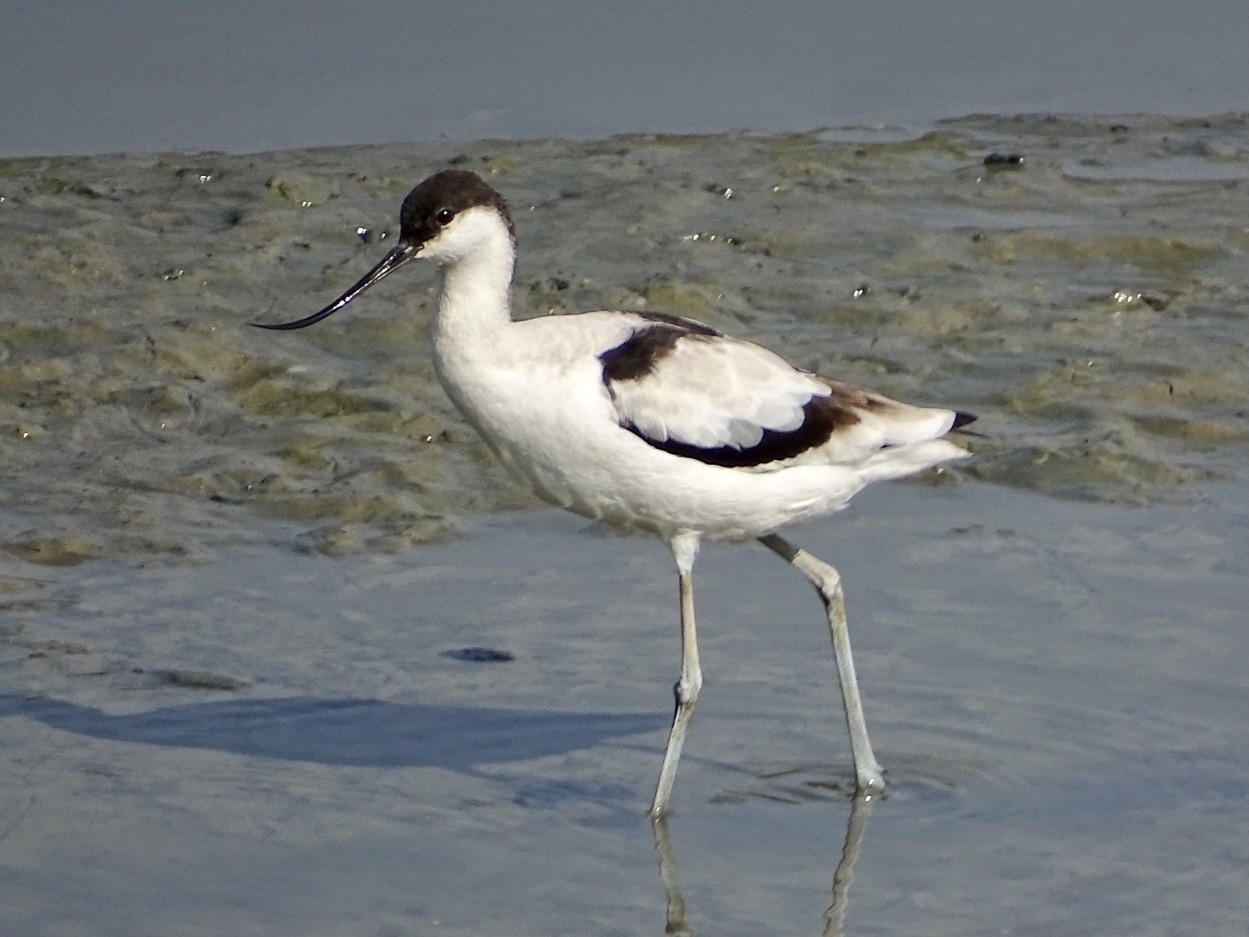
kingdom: Animalia
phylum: Chordata
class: Aves
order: Charadriiformes
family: Recurvirostridae
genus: Recurvirostra
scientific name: Recurvirostra avosetta
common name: Pied avocet
